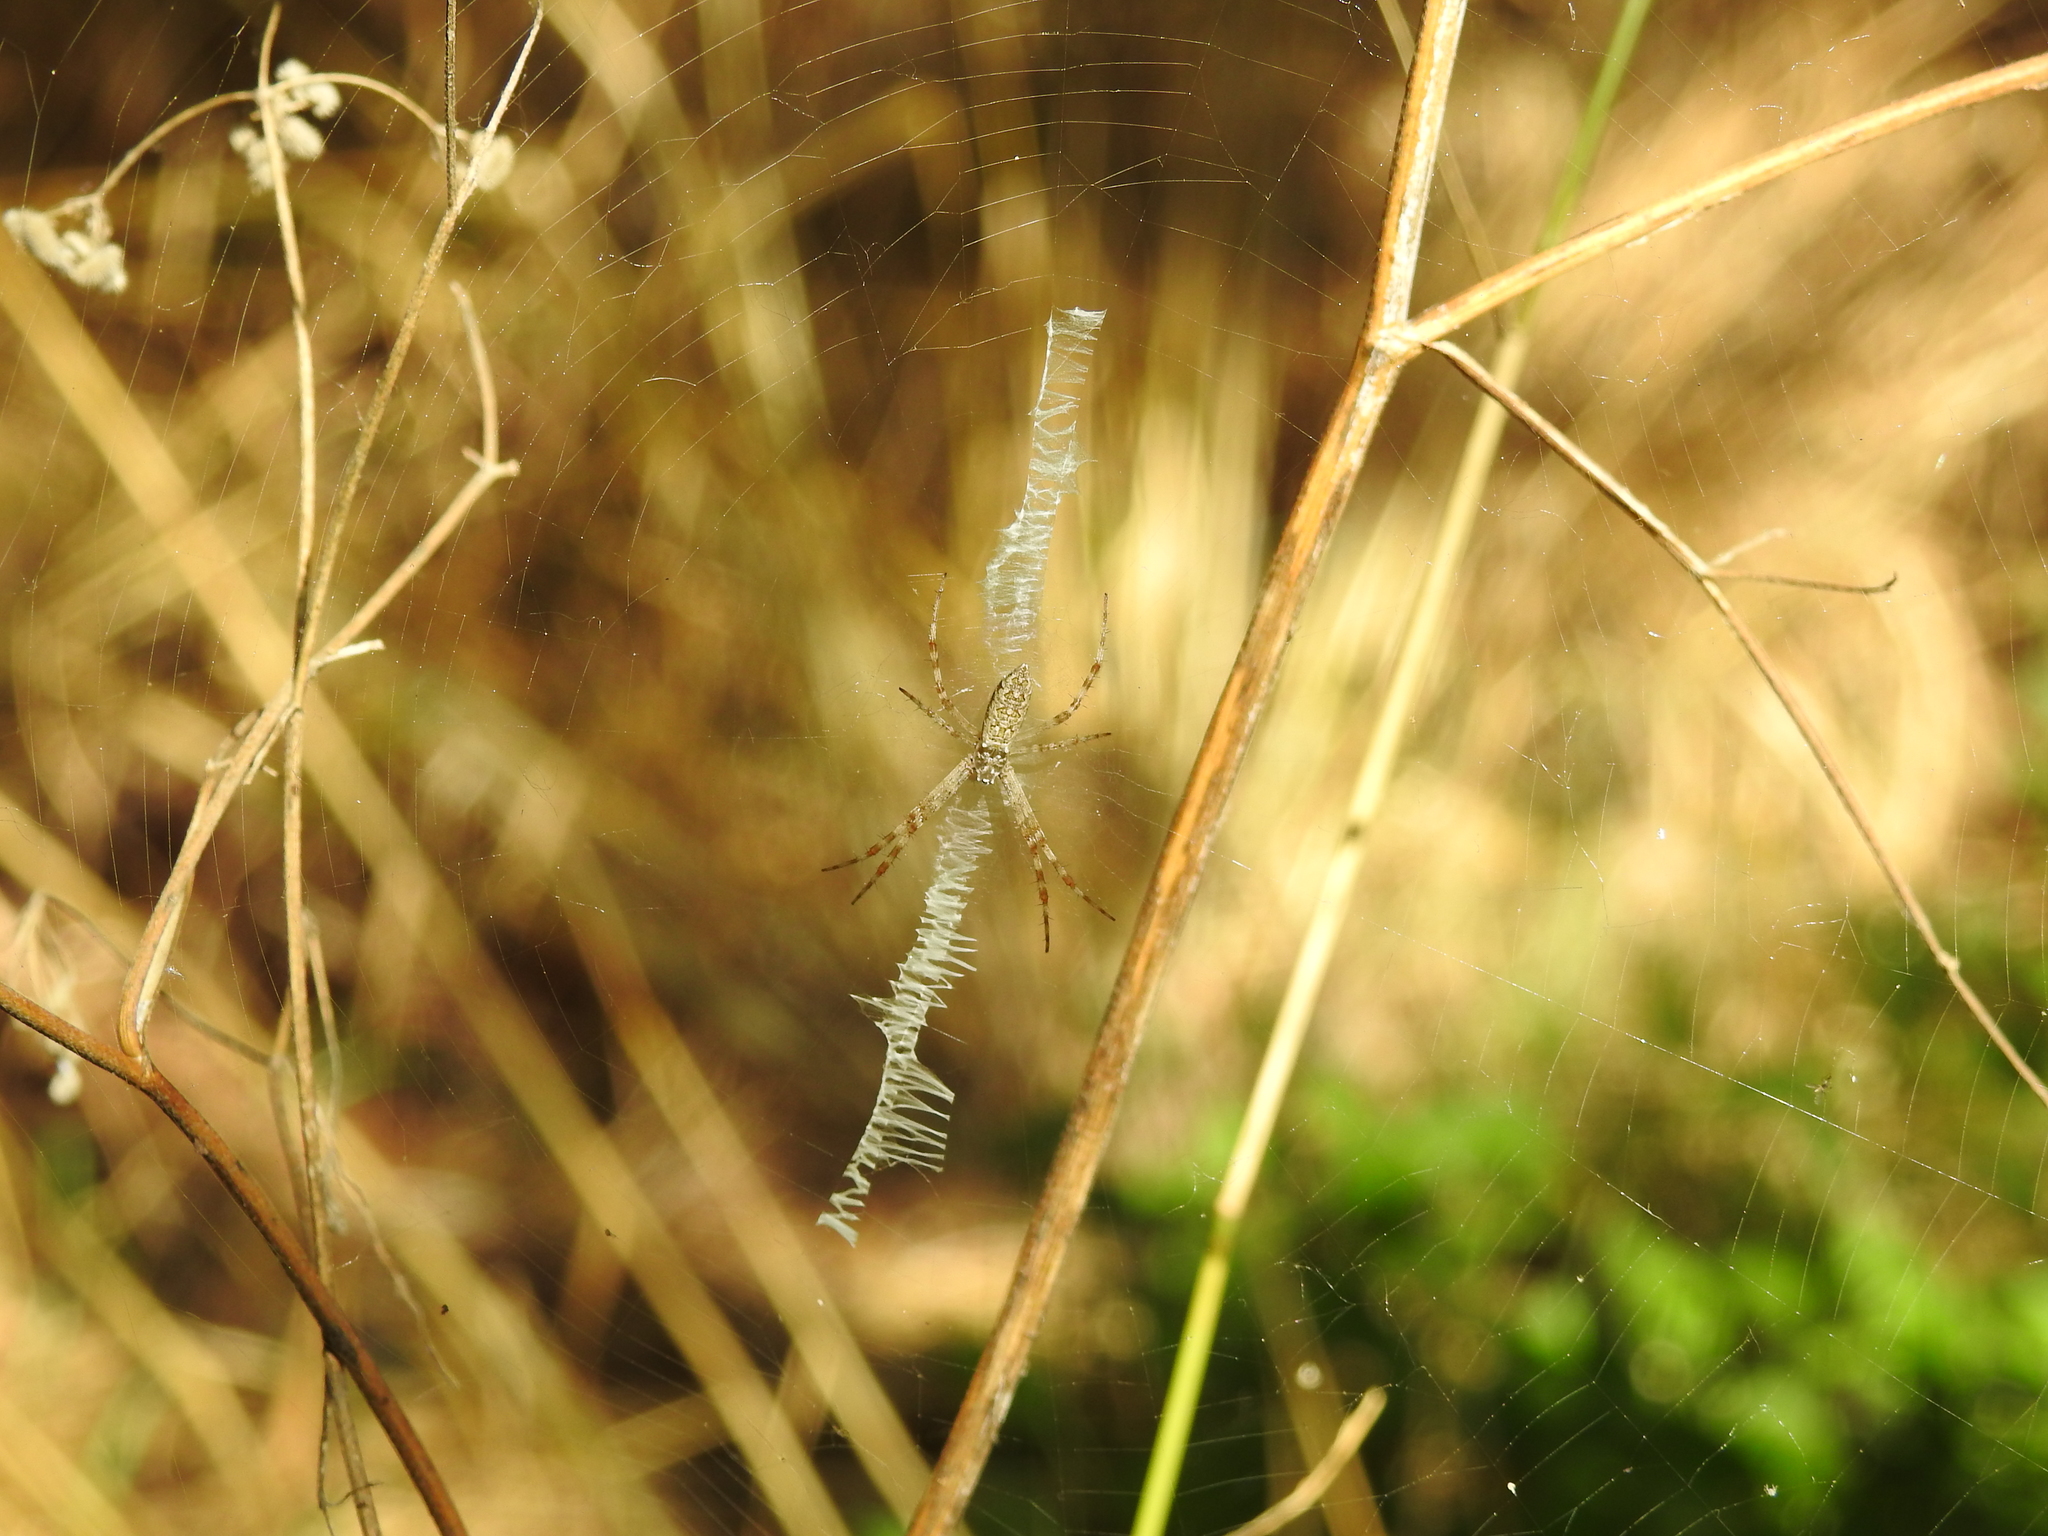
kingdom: Animalia
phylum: Arthropoda
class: Arachnida
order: Araneae
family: Araneidae
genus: Argiope
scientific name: Argiope aurantia
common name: Orb weavers
